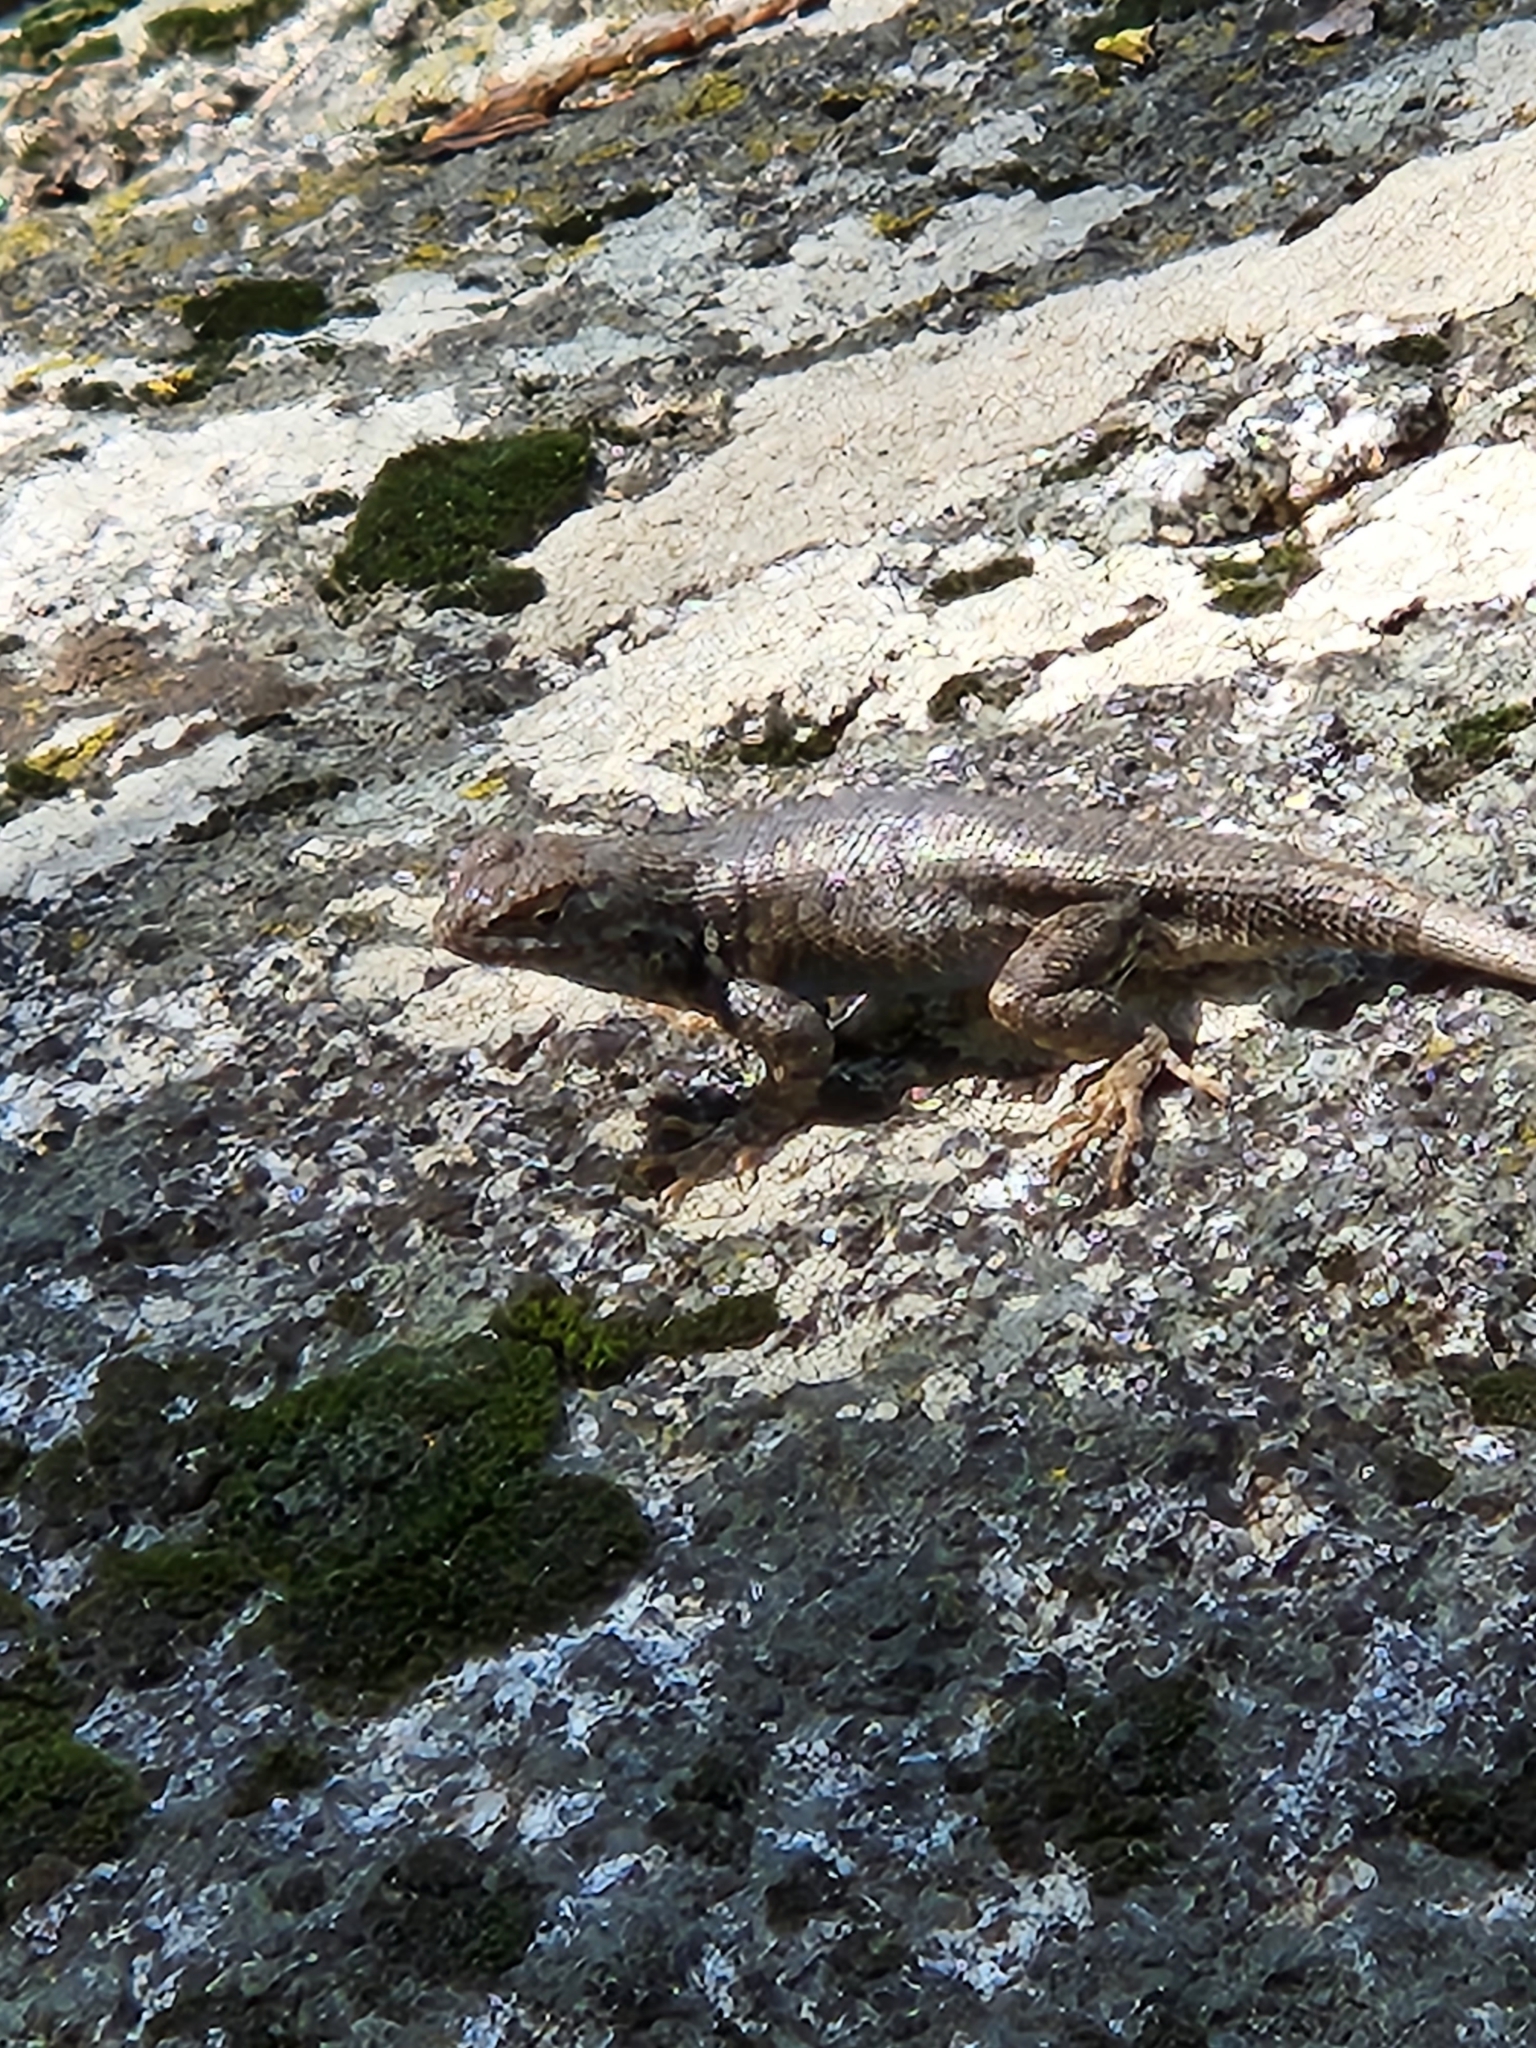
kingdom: Animalia
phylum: Chordata
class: Squamata
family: Phrynosomatidae
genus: Sceloporus
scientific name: Sceloporus graciosus
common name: Sagebrush lizard
